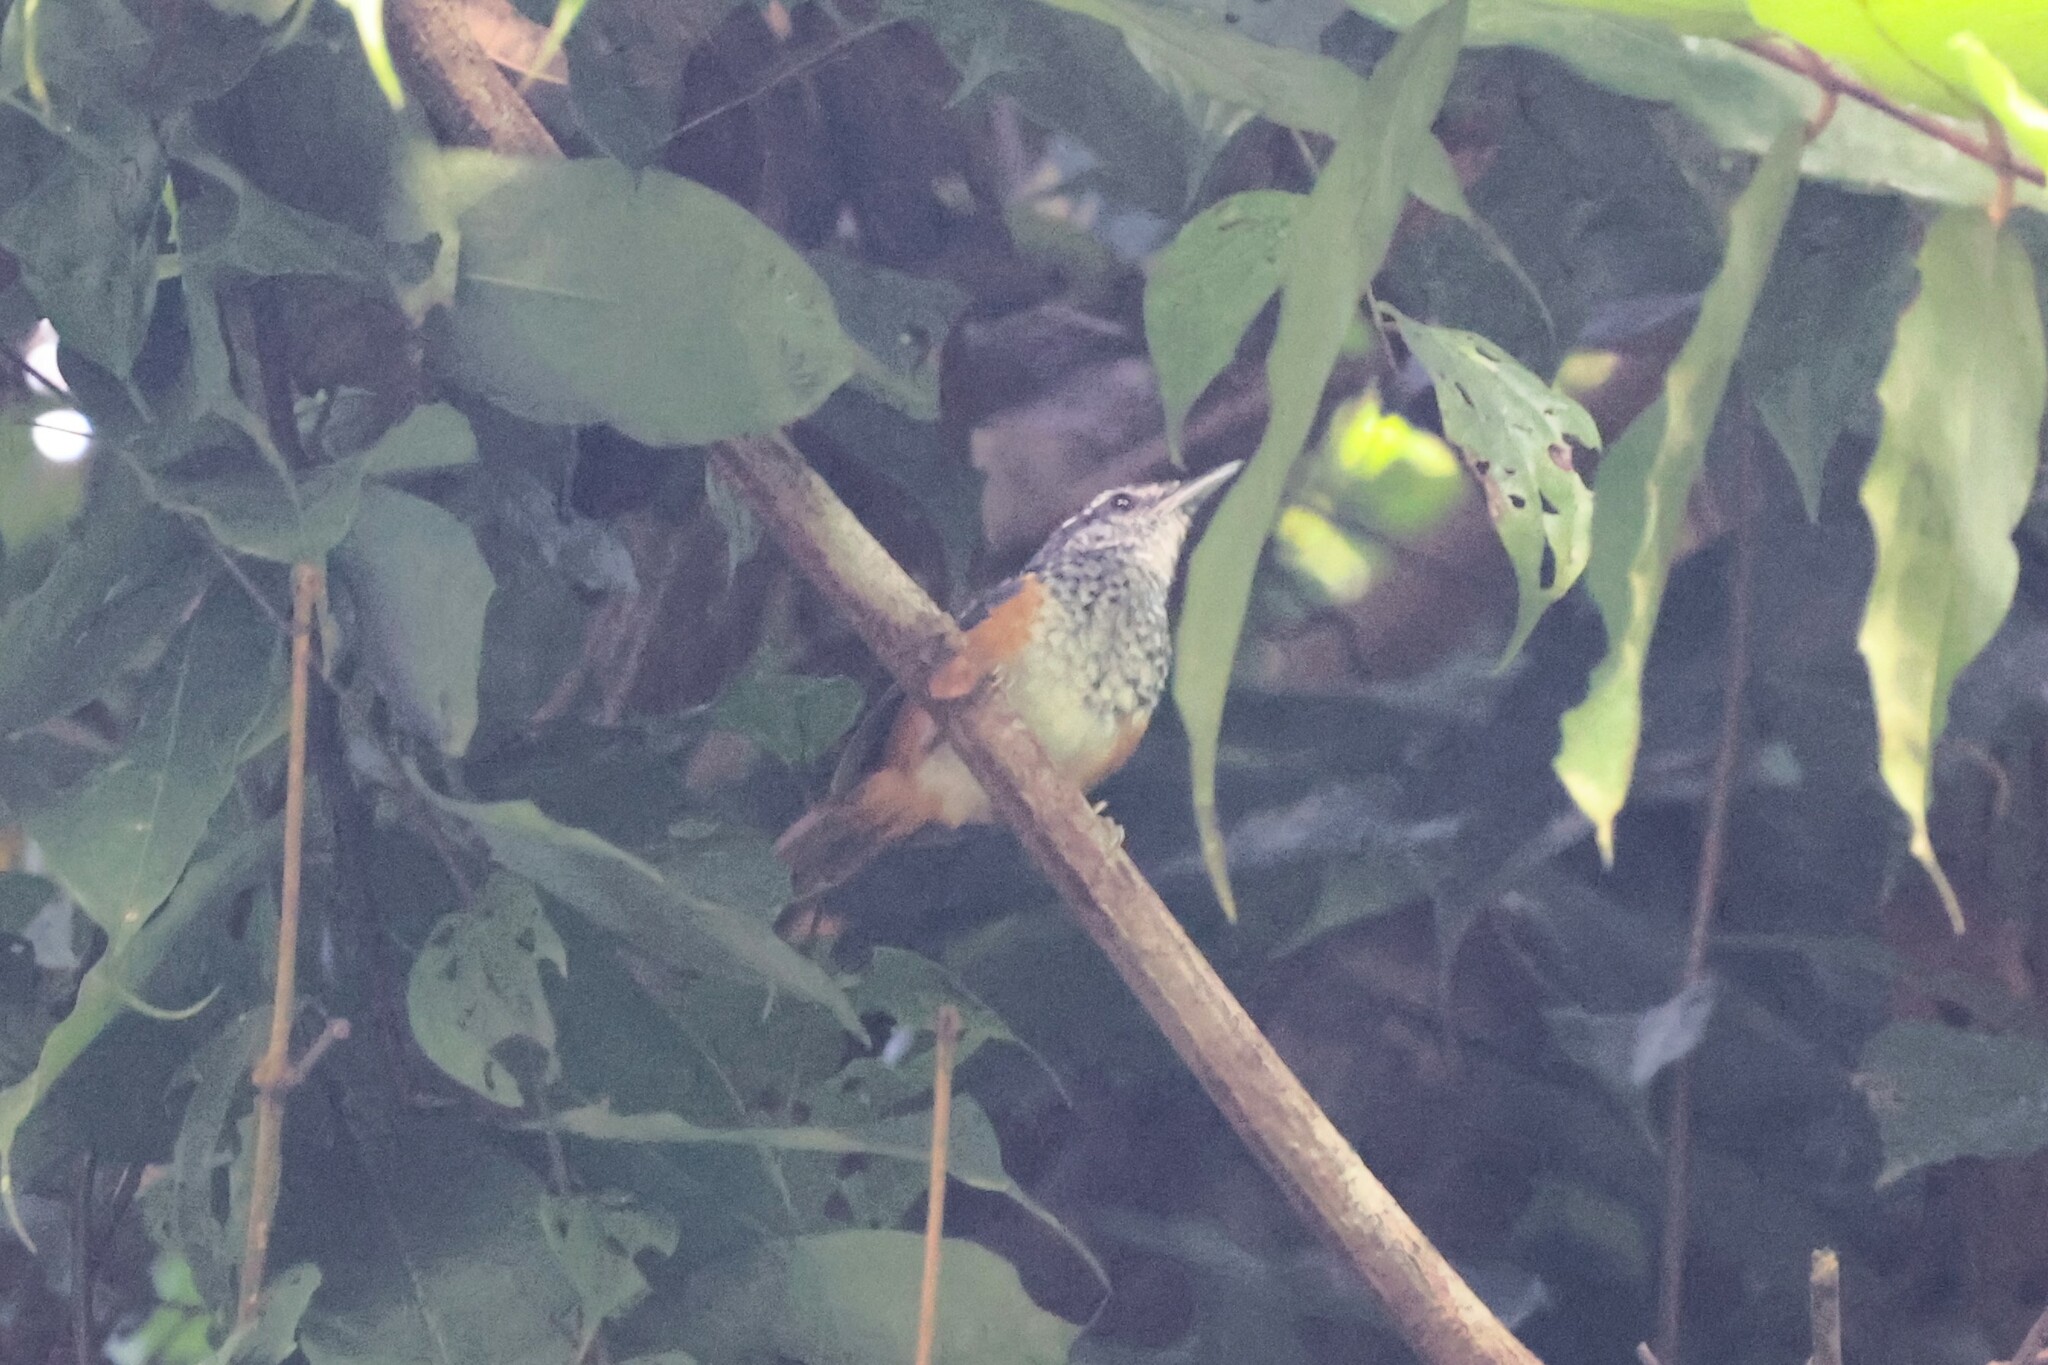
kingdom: Animalia
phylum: Chordata
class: Aves
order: Passeriformes
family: Thamnophilidae
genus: Hypocnemis
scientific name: Hypocnemis peruviana
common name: Peruvian warbling-antbird
